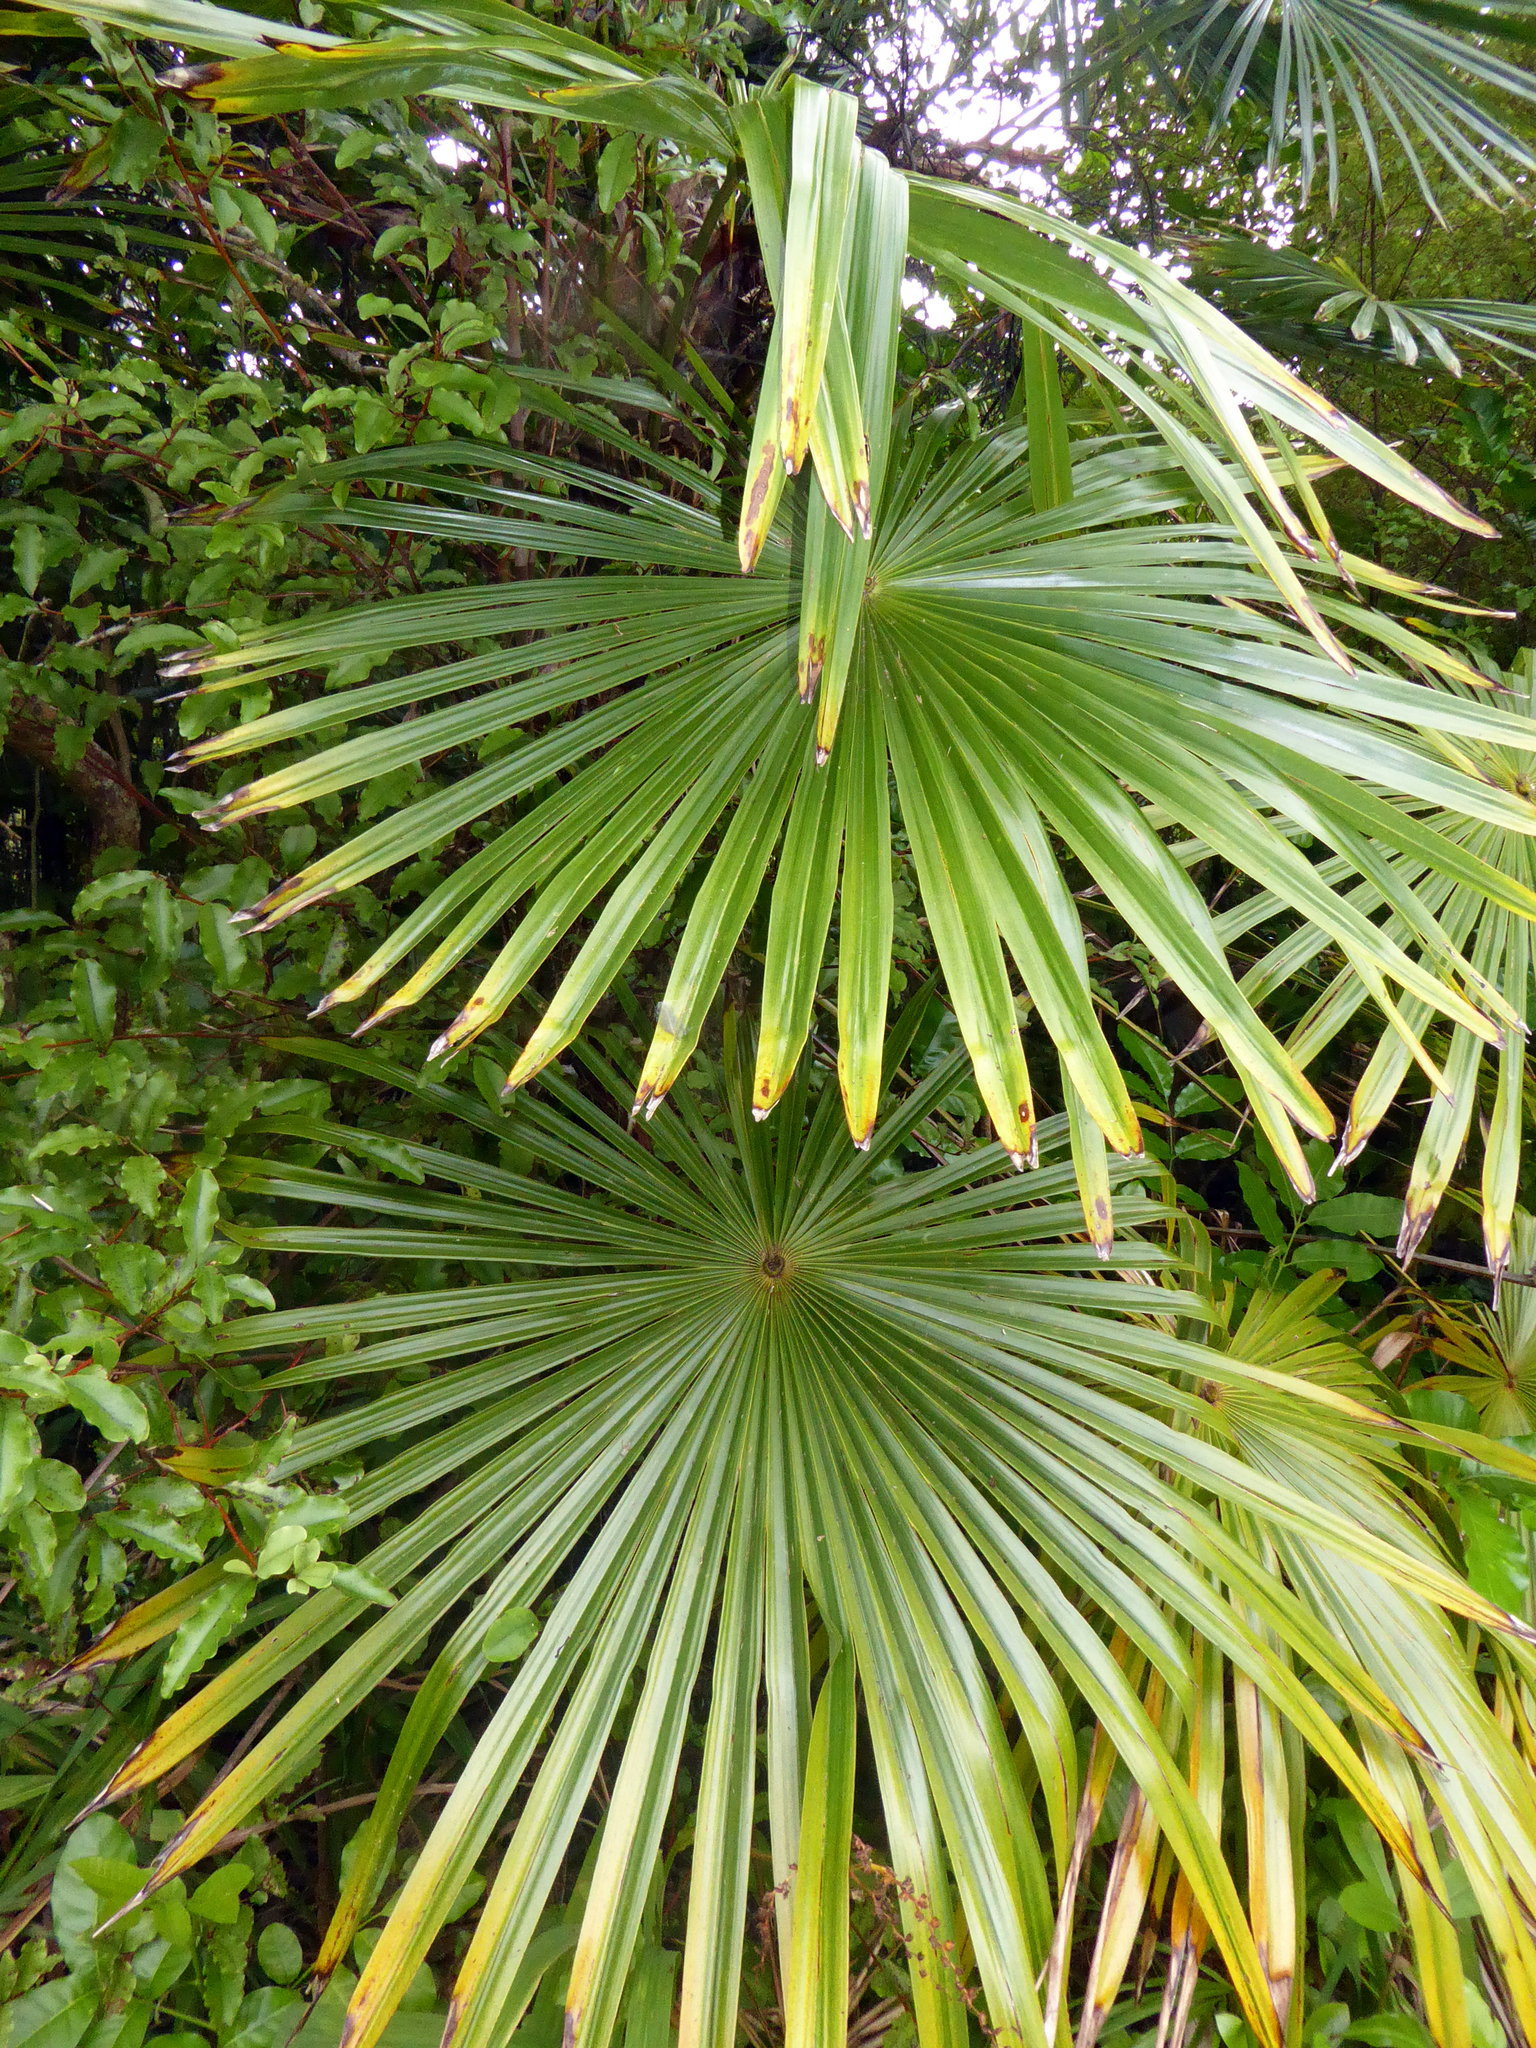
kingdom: Plantae
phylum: Tracheophyta
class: Liliopsida
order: Arecales
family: Arecaceae
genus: Trachycarpus
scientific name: Trachycarpus fortunei
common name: Chusan palm
